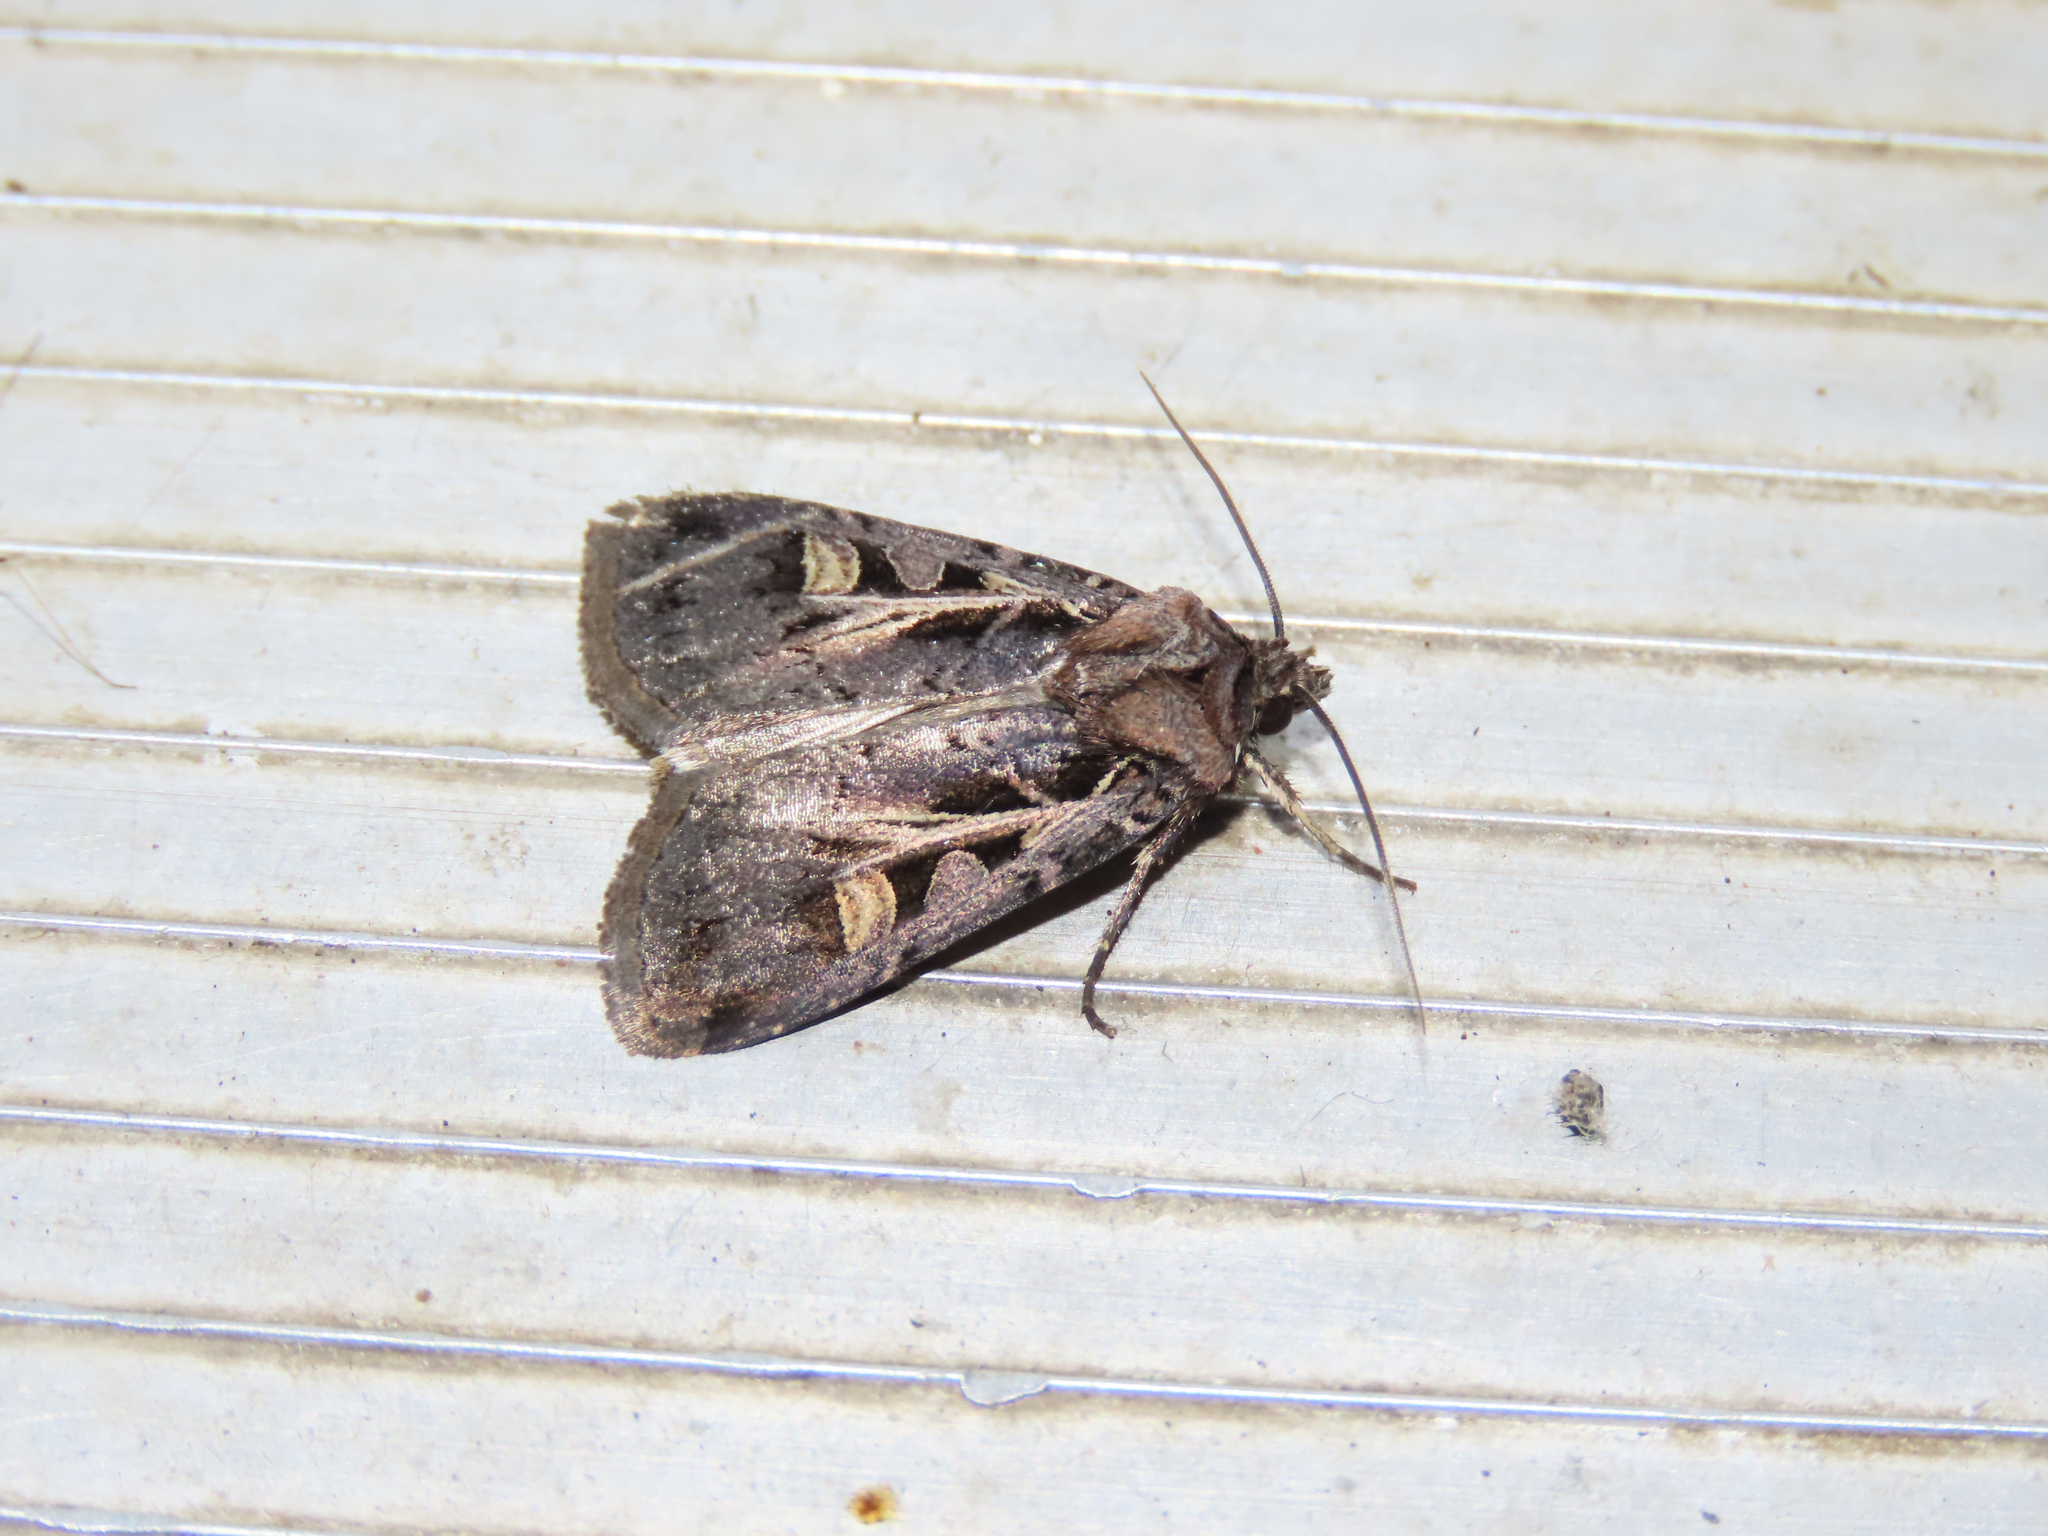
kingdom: Animalia
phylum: Arthropoda
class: Insecta
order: Lepidoptera
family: Noctuidae
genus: Feltia
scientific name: Feltia herilis
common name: Master's dart
